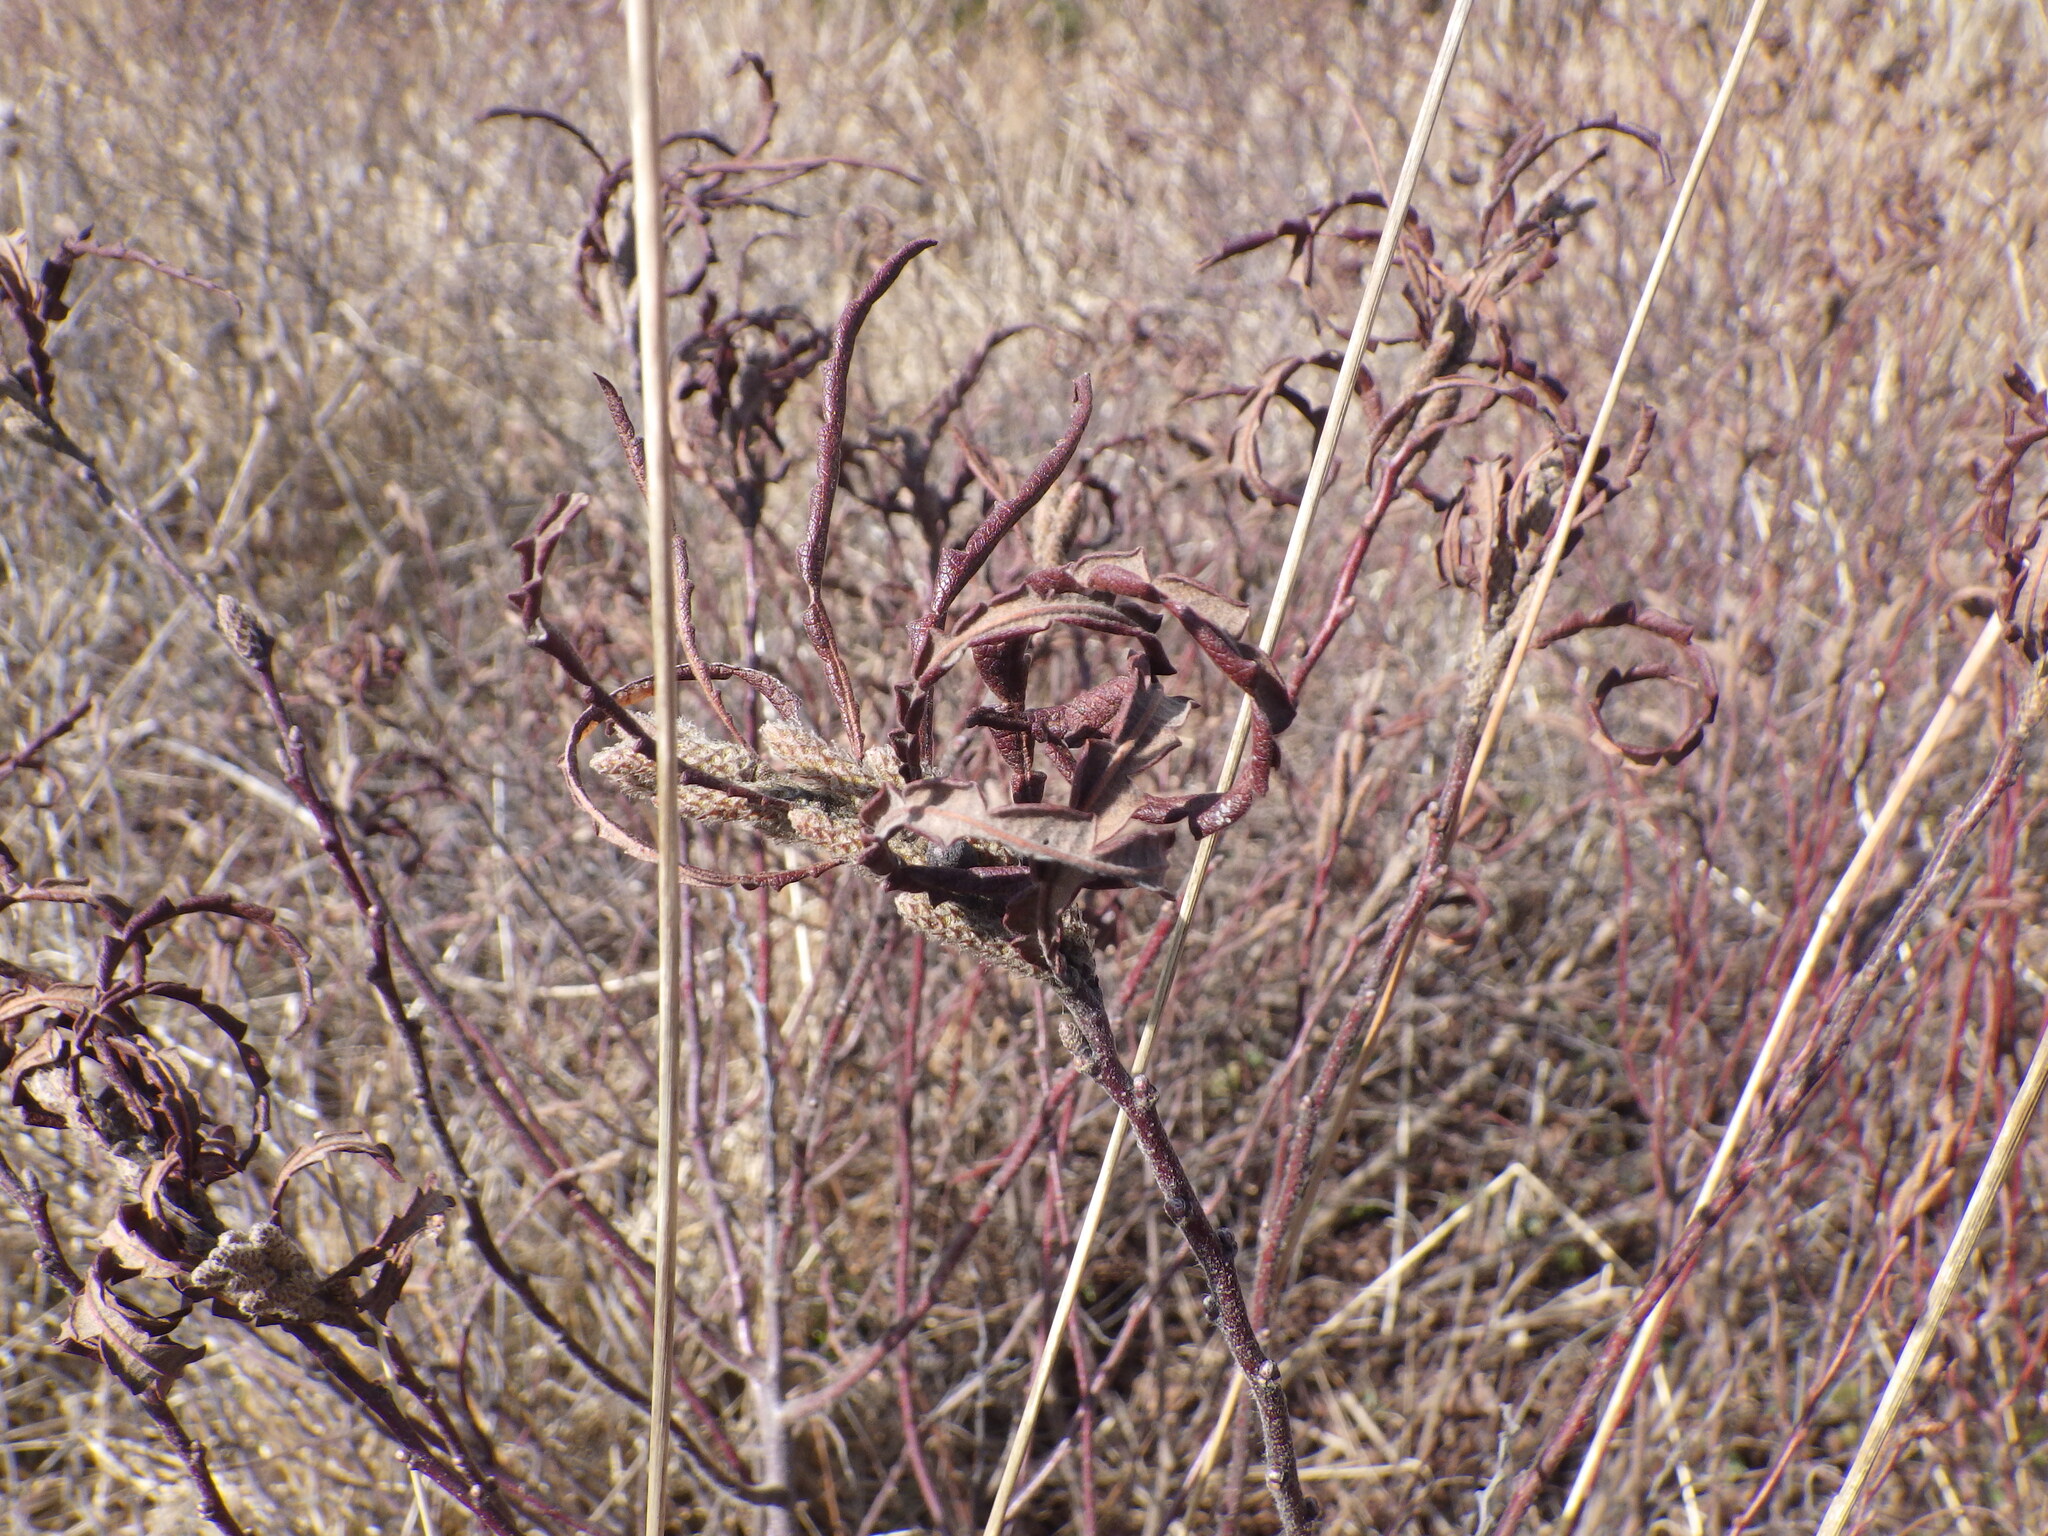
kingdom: Plantae
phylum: Tracheophyta
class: Magnoliopsida
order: Fagales
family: Myricaceae
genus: Comptonia
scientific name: Comptonia peregrina
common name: Sweet-fern
